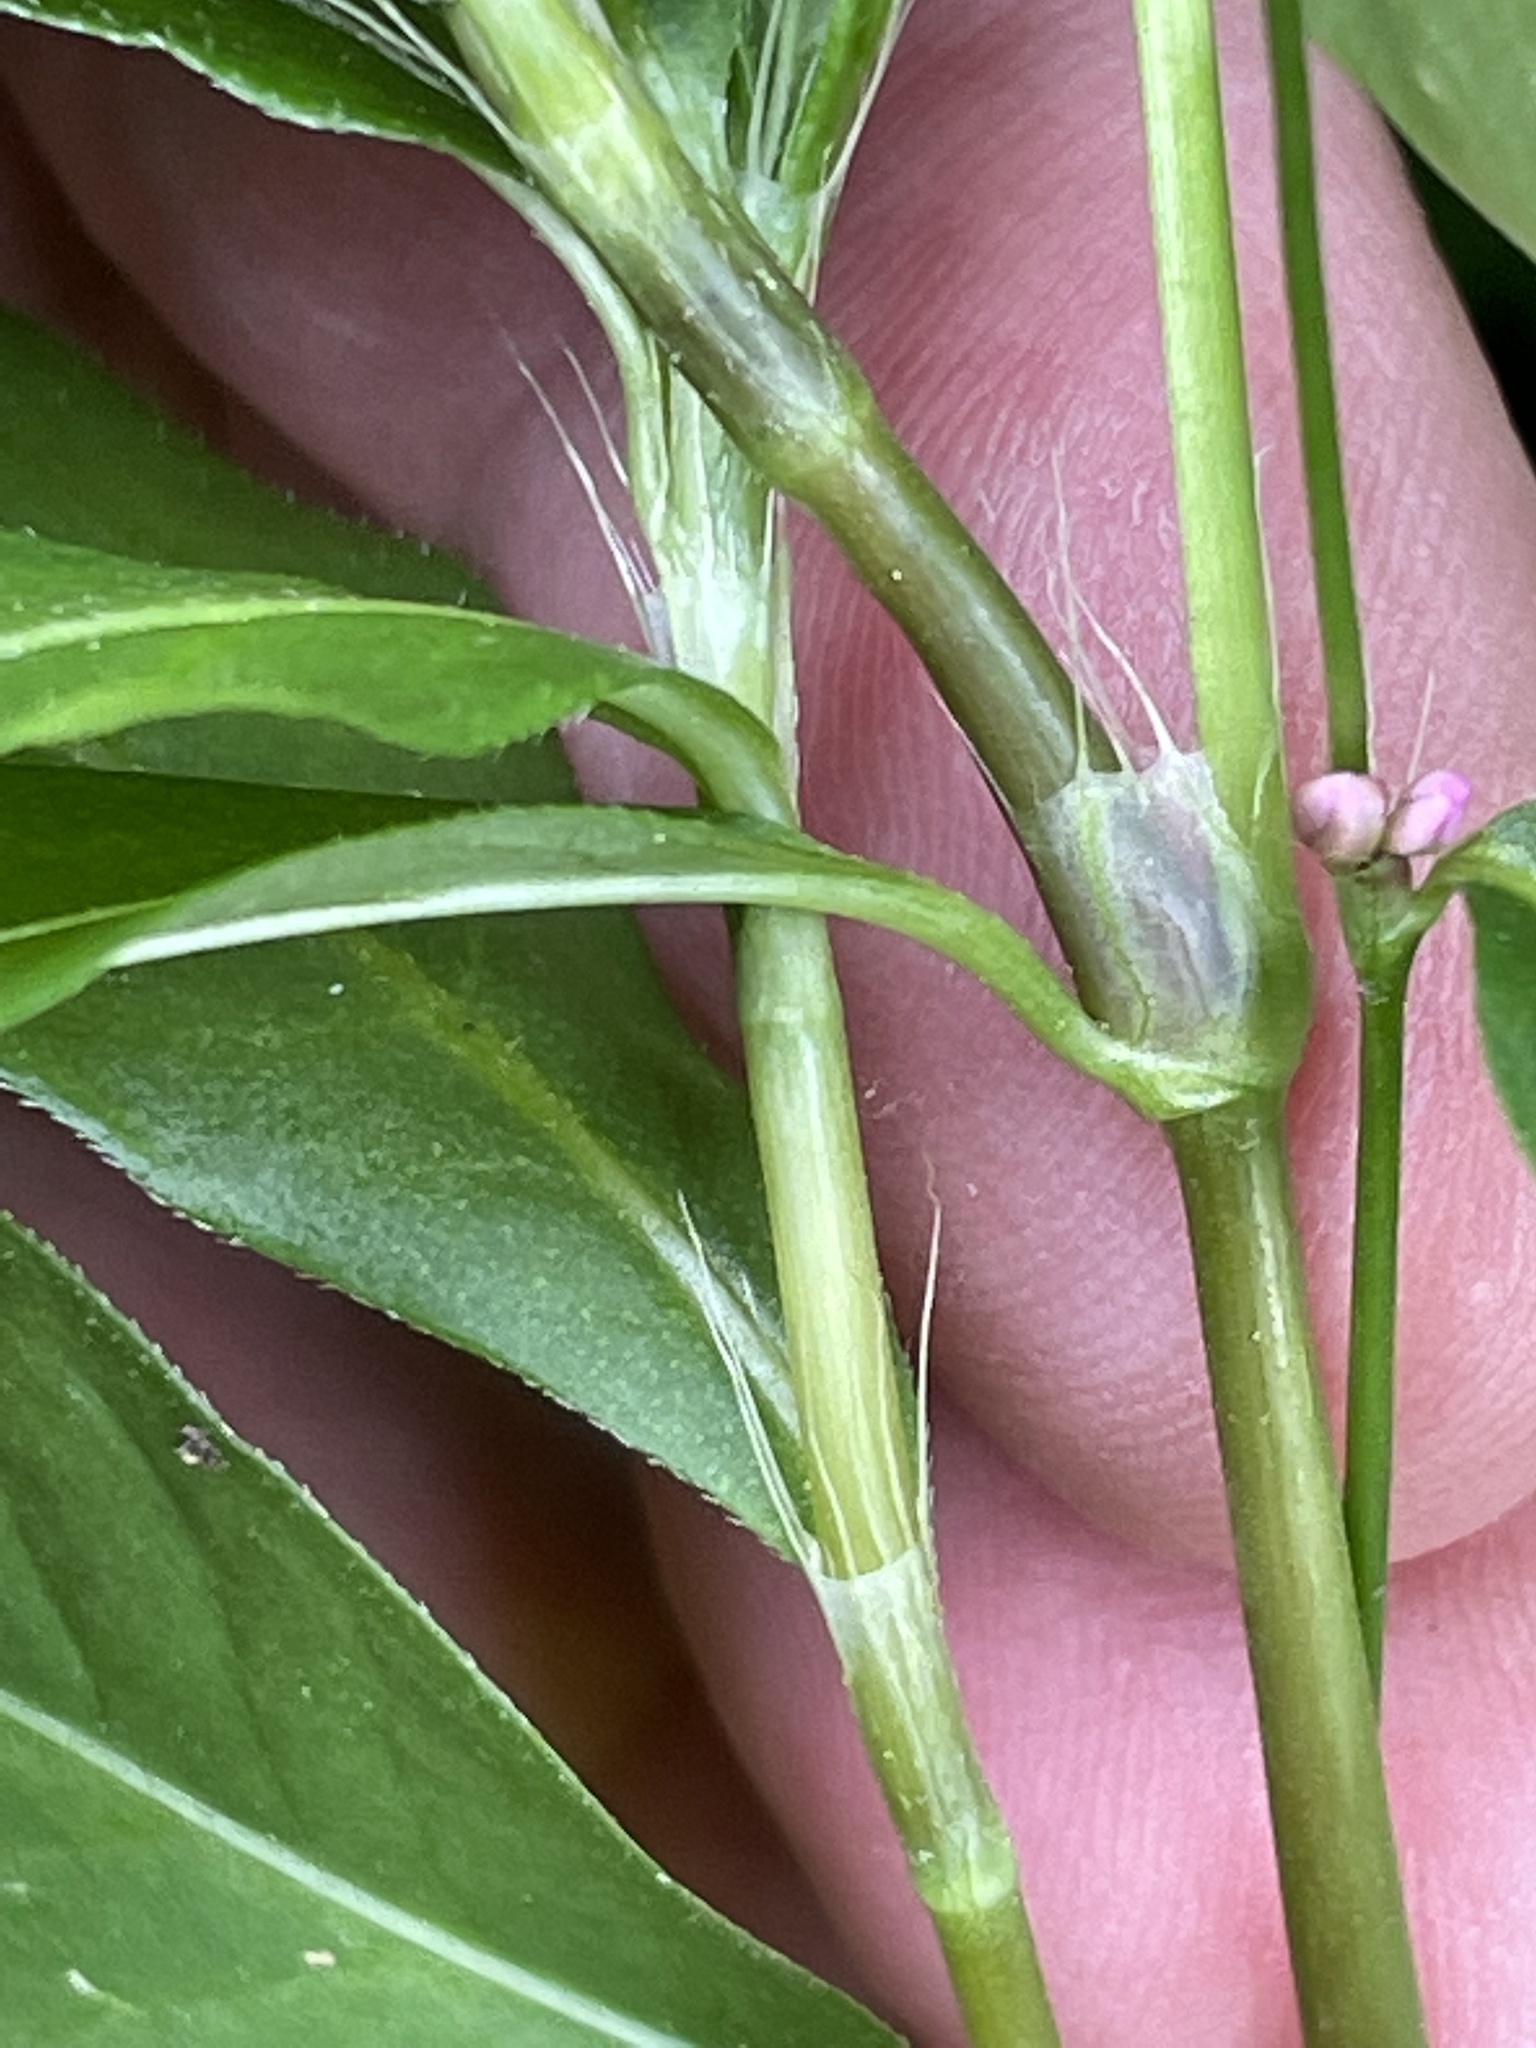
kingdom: Plantae
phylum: Tracheophyta
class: Magnoliopsida
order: Caryophyllales
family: Polygonaceae
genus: Persicaria
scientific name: Persicaria longiseta
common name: Bristly lady's-thumb
